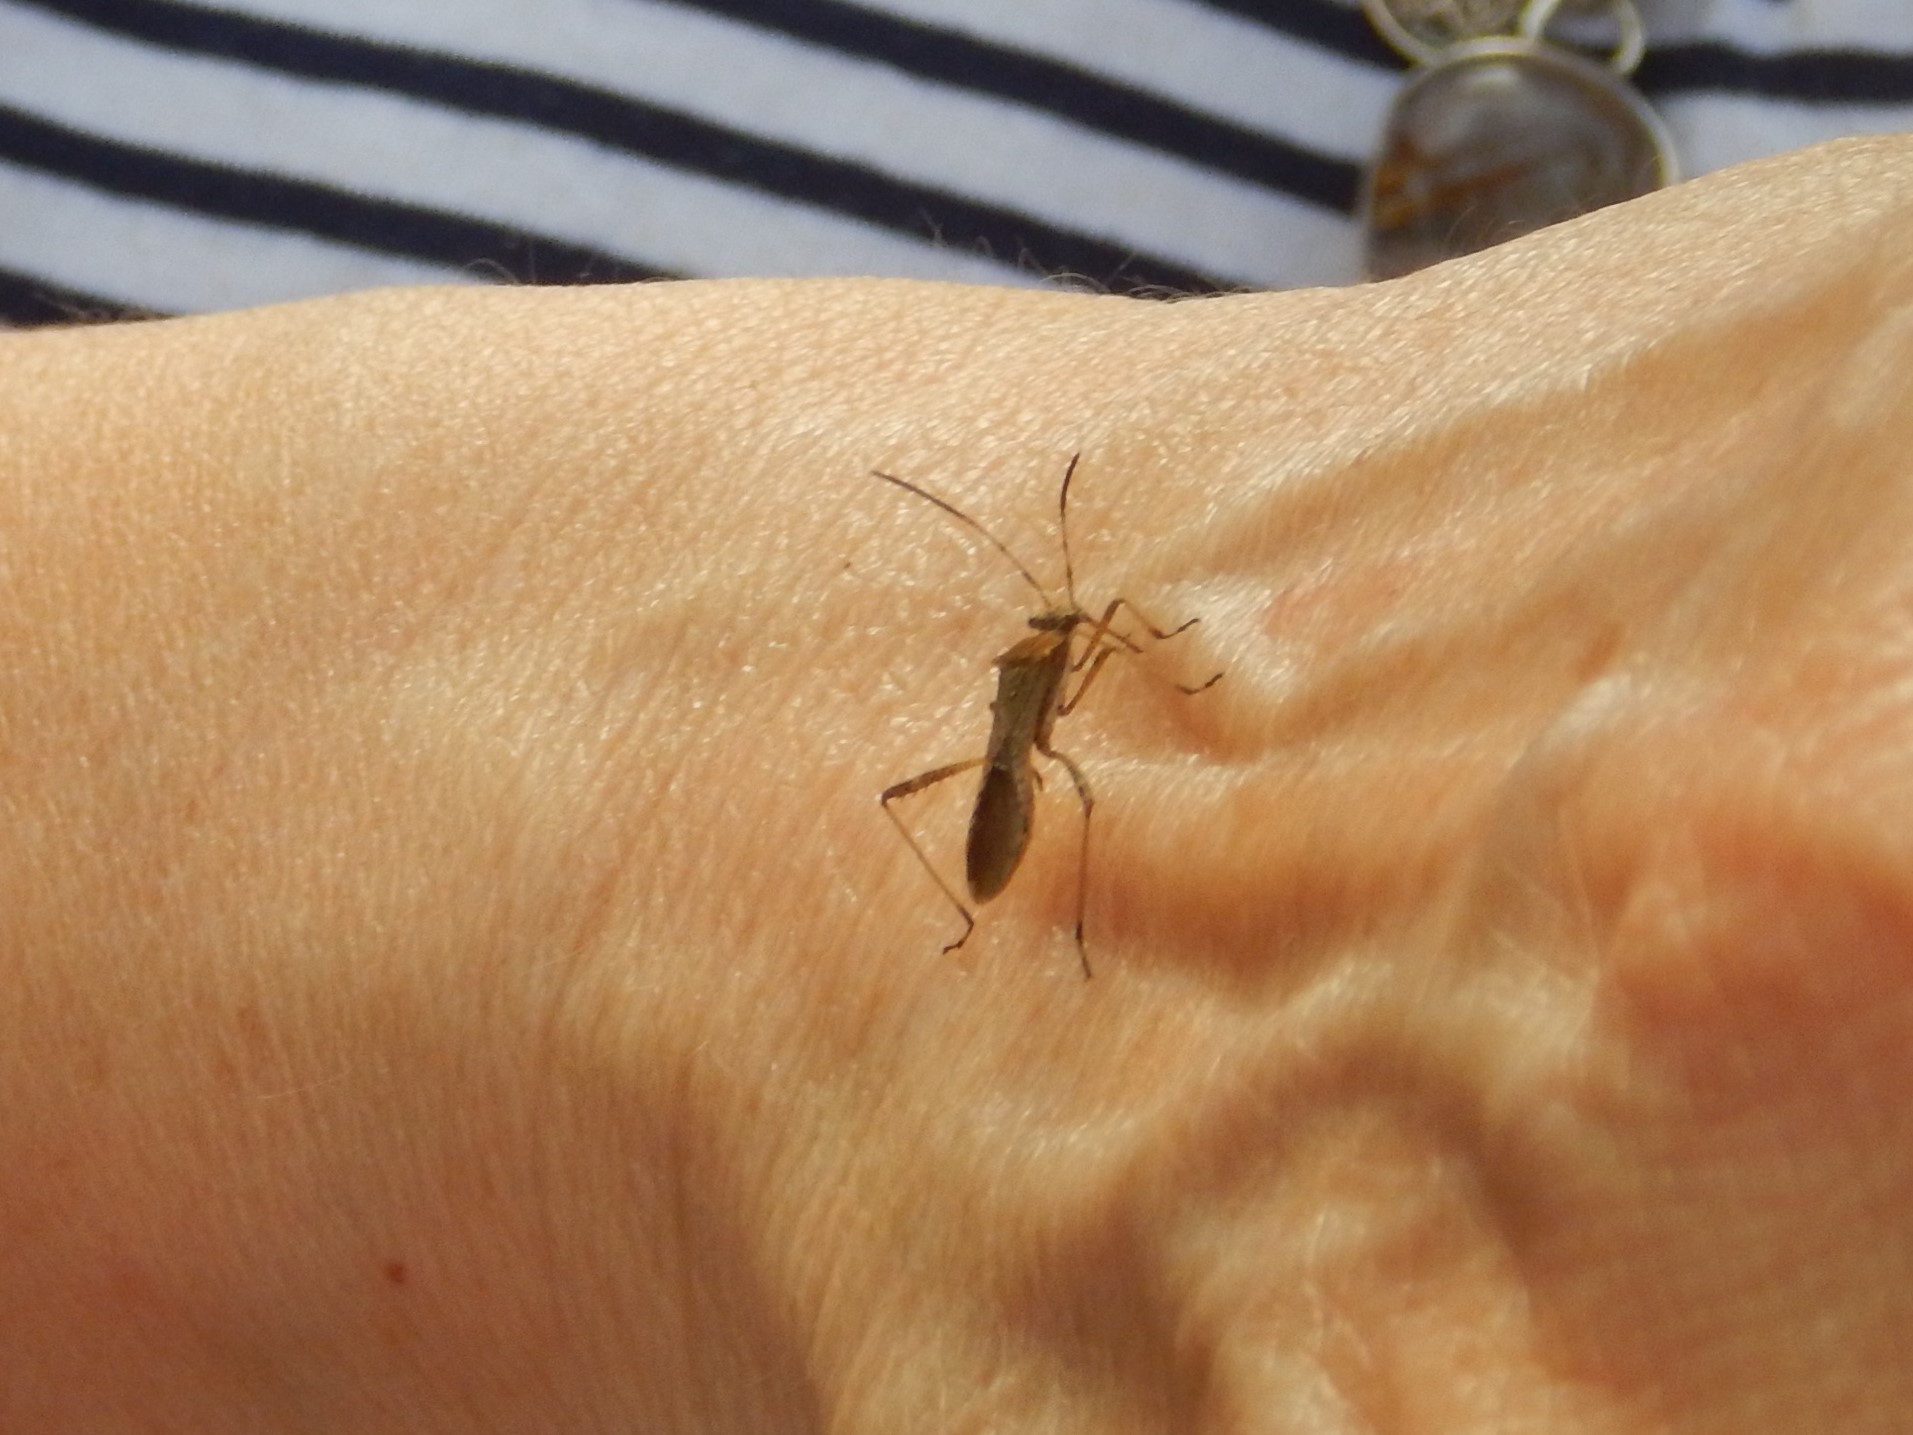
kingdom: Animalia
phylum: Arthropoda
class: Insecta
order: Hemiptera
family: Alydidae
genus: Neomegalotomus
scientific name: Neomegalotomus parvus
